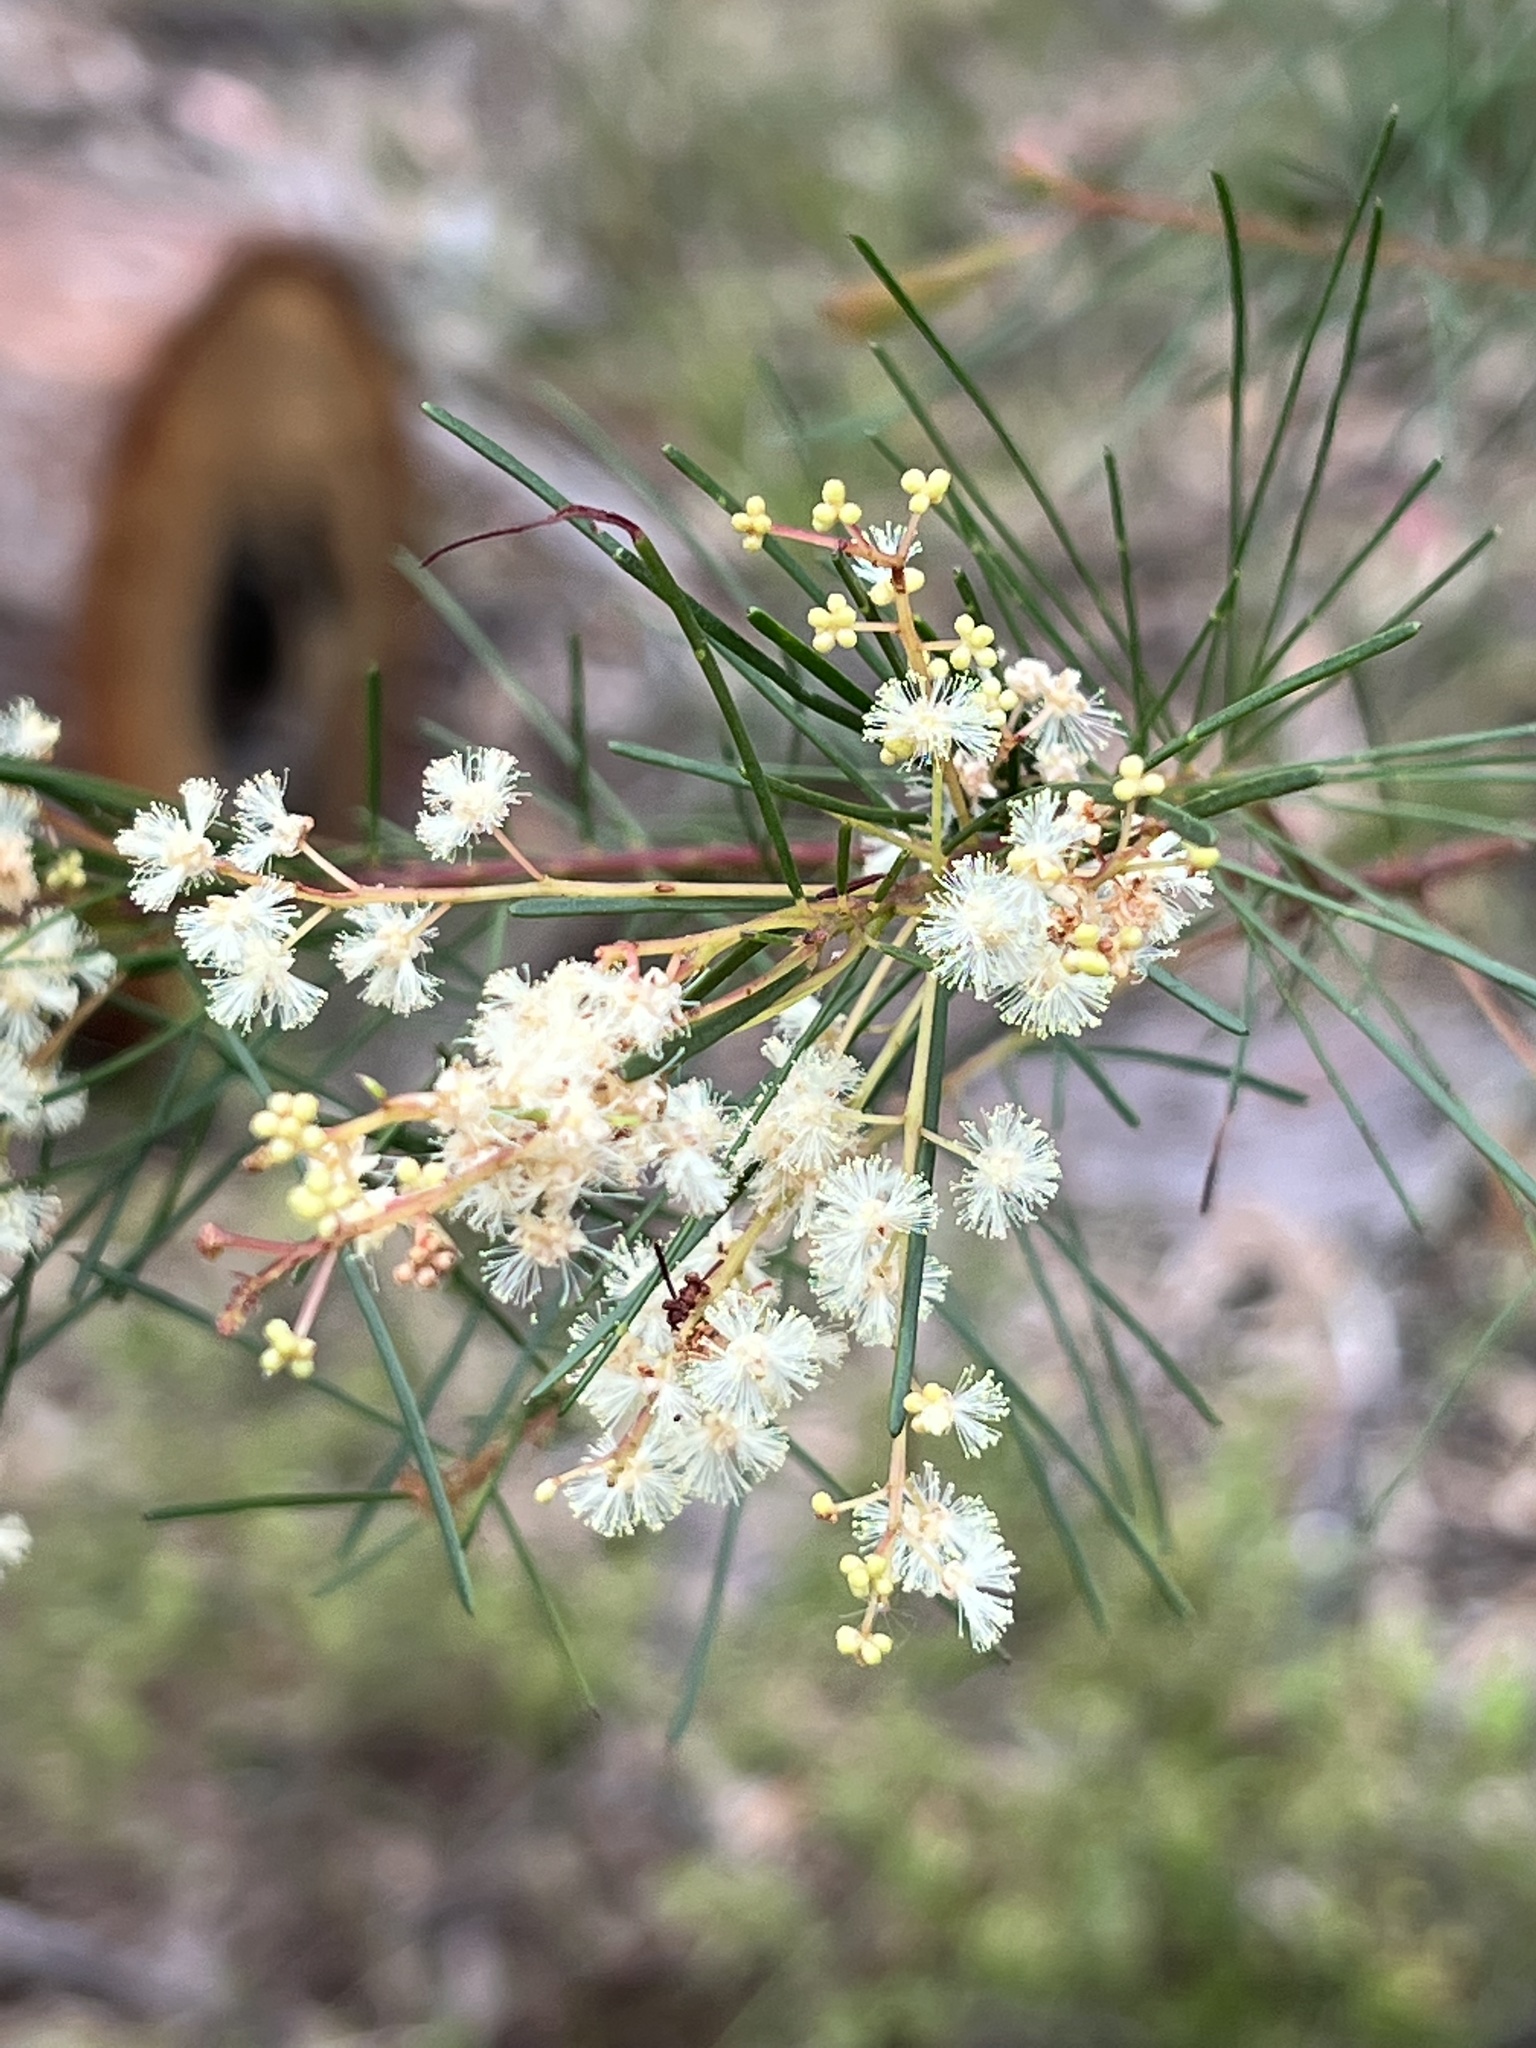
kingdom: Plantae
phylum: Tracheophyta
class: Magnoliopsida
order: Fabales
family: Fabaceae
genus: Acacia
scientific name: Acacia linifolia
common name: White wattle
